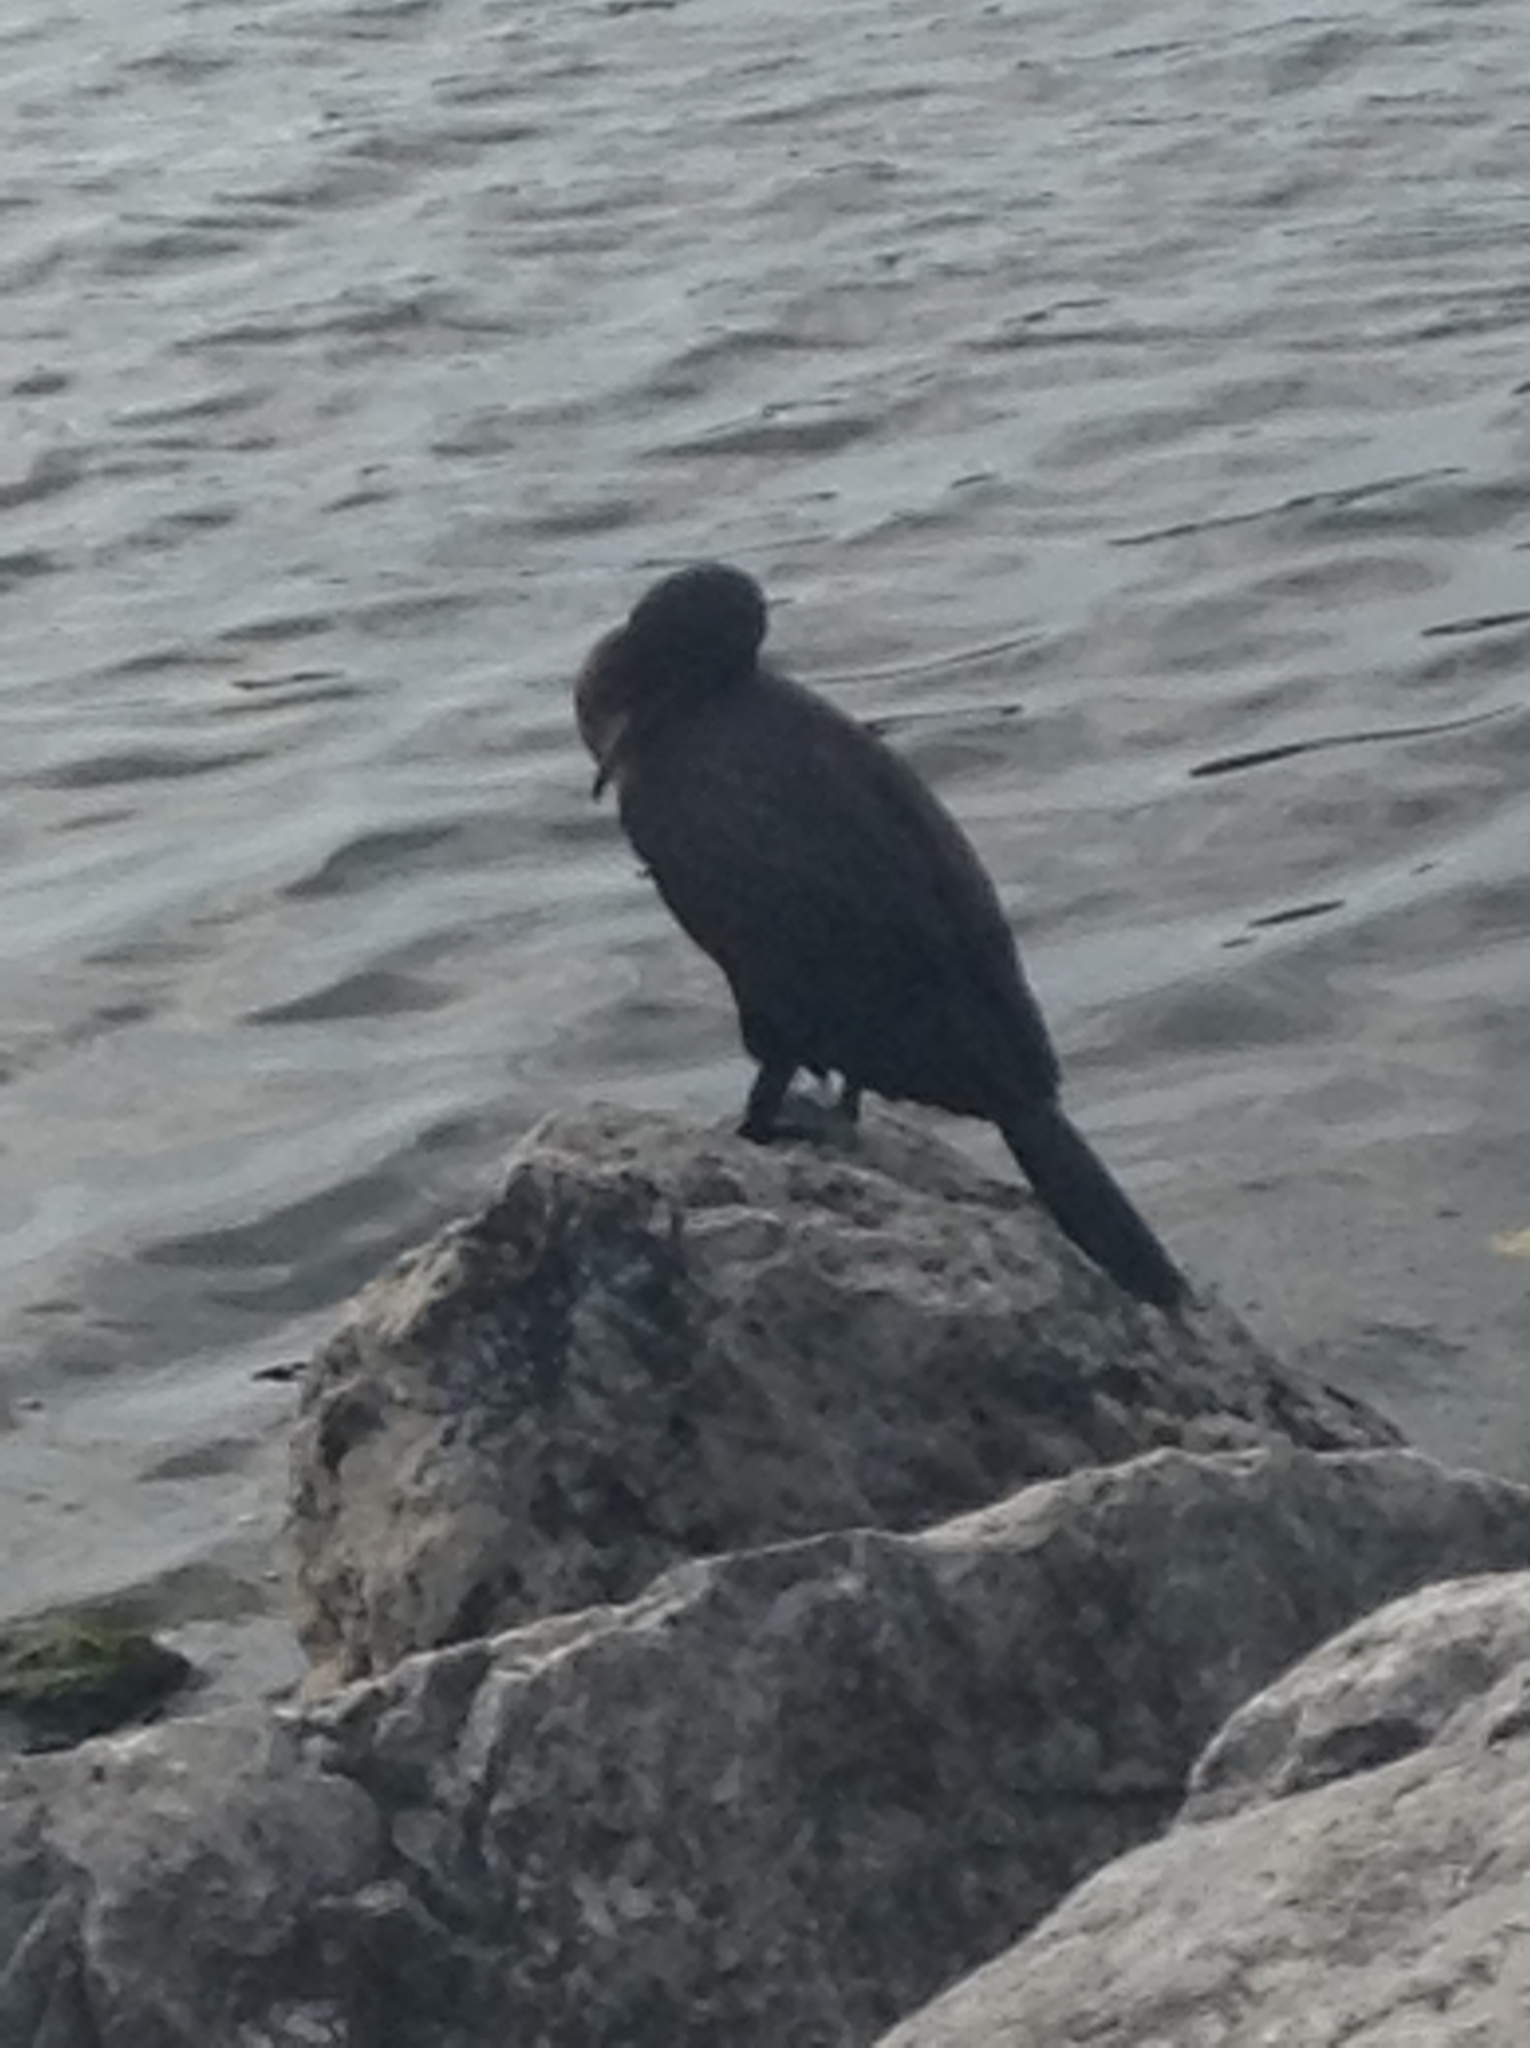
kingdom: Animalia
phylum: Chordata
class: Aves
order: Suliformes
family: Phalacrocoracidae
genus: Phalacrocorax
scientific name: Phalacrocorax auritus
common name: Double-crested cormorant
